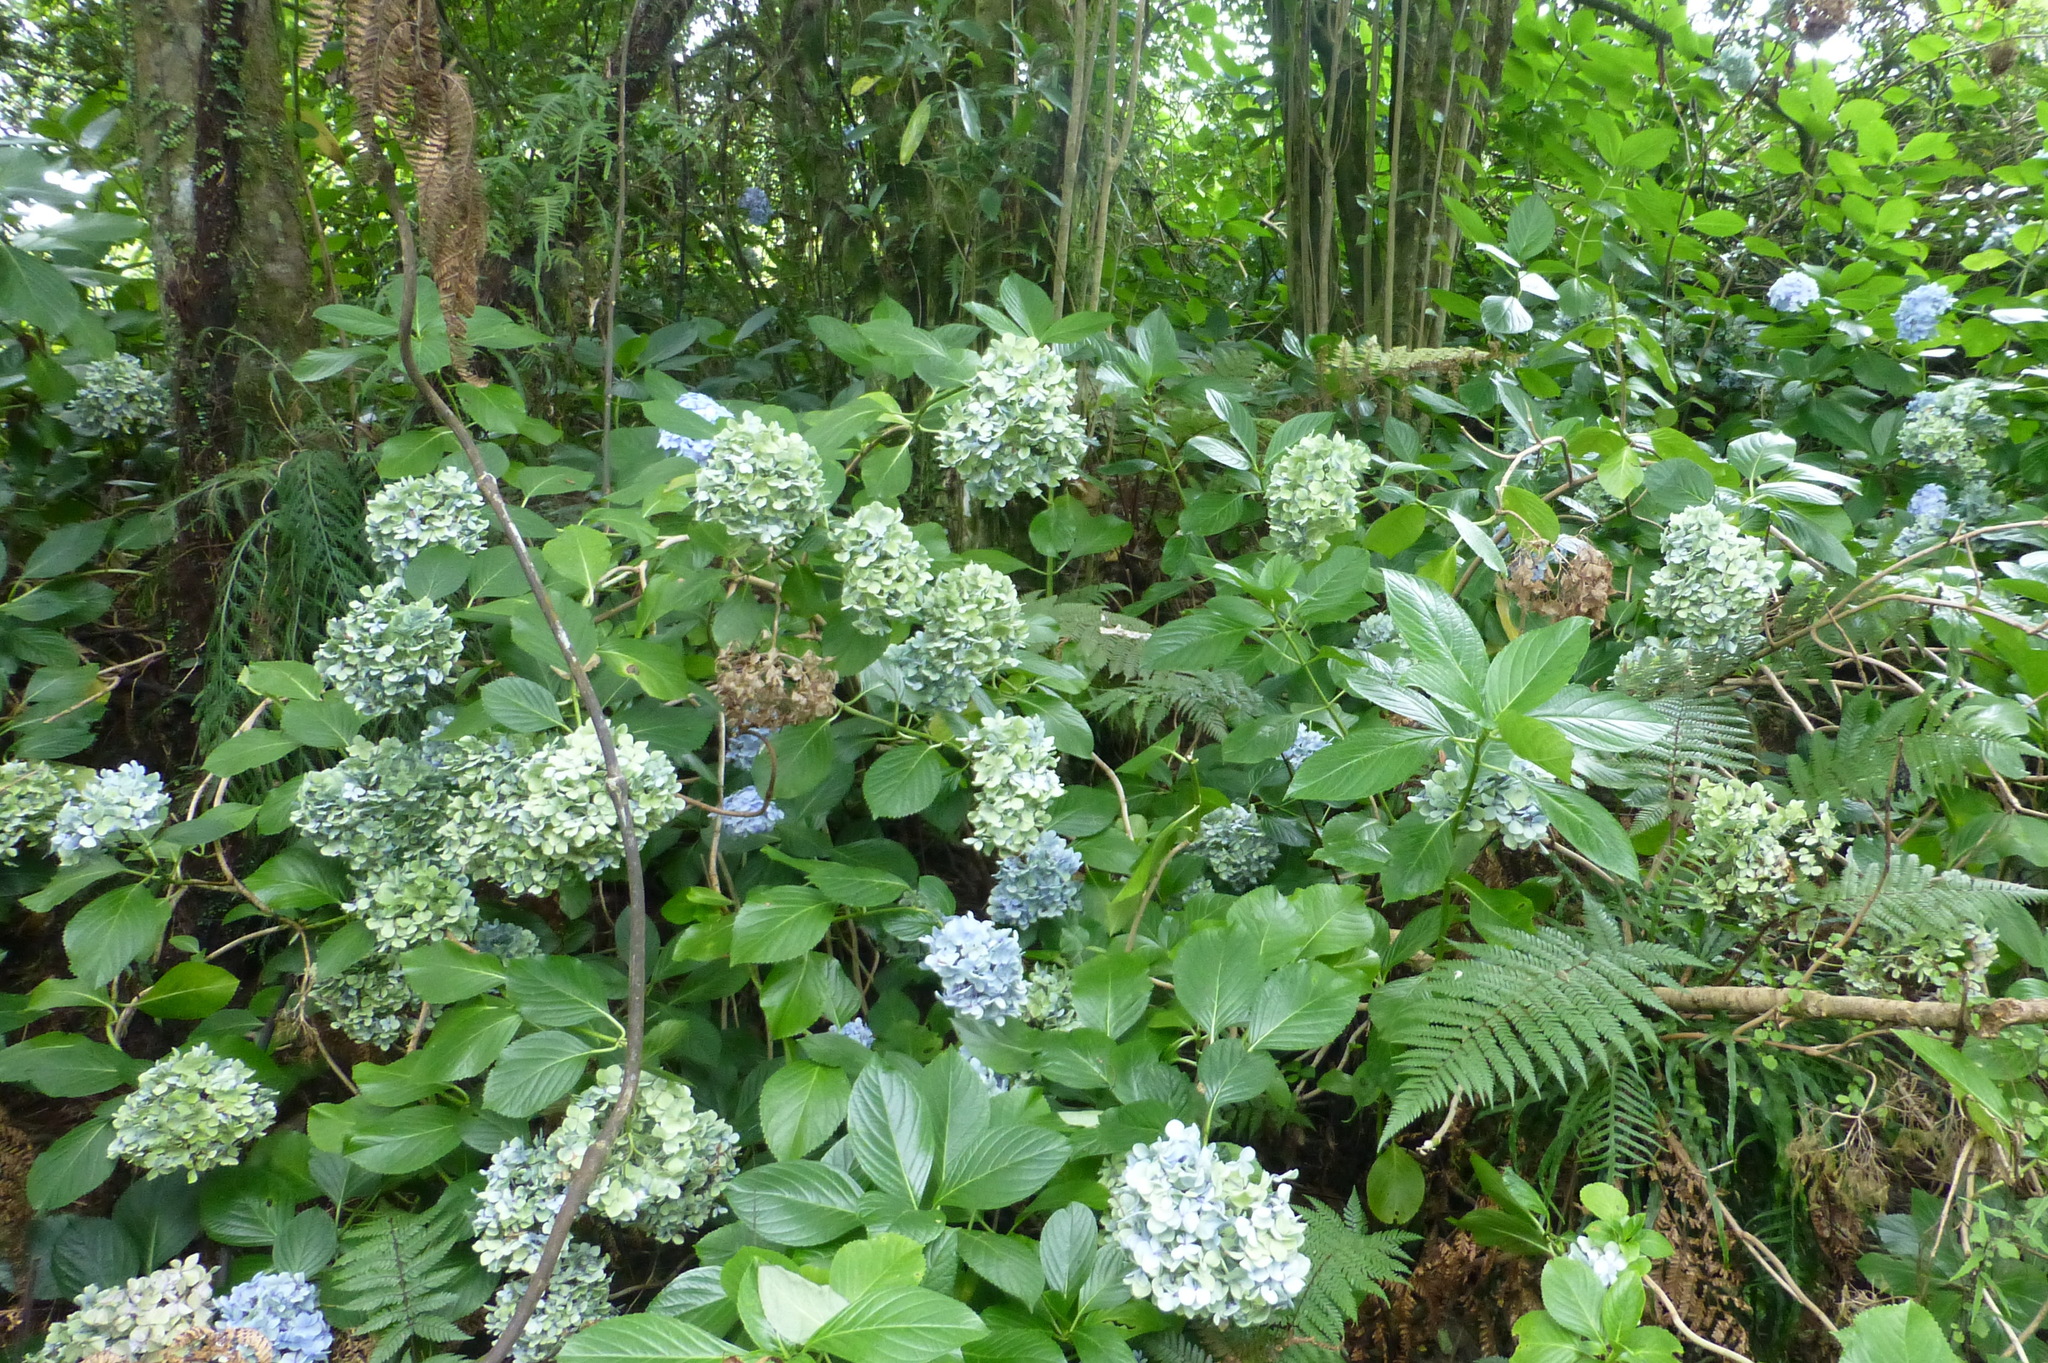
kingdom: Plantae
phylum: Tracheophyta
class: Magnoliopsida
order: Cornales
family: Hydrangeaceae
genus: Hydrangea
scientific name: Hydrangea macrophylla
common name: Hydrangea
